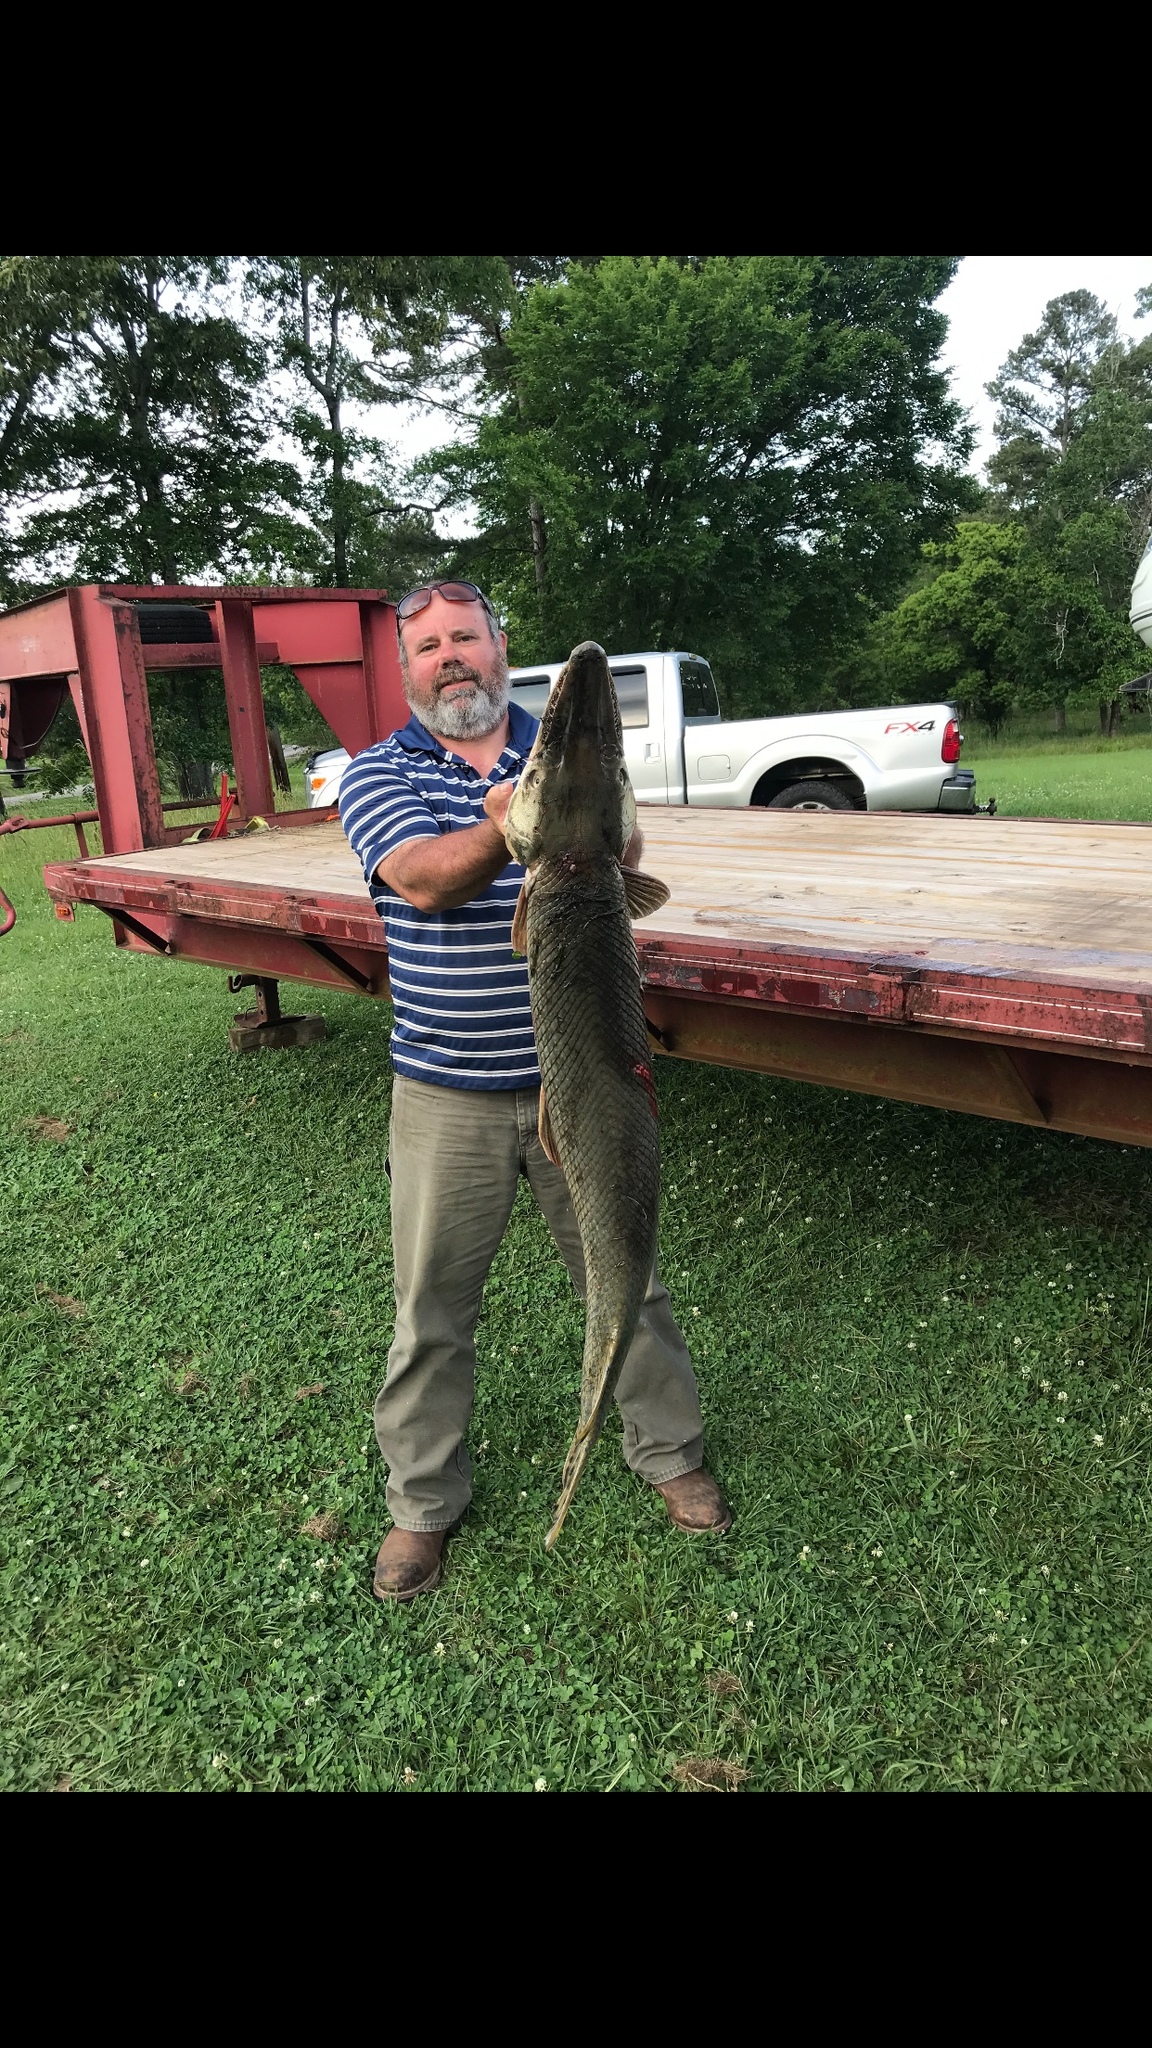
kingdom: Animalia
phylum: Chordata
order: Lepisosteiformes
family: Lepisosteidae
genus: Atractosteus
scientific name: Atractosteus spatula
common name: Alligator gar
